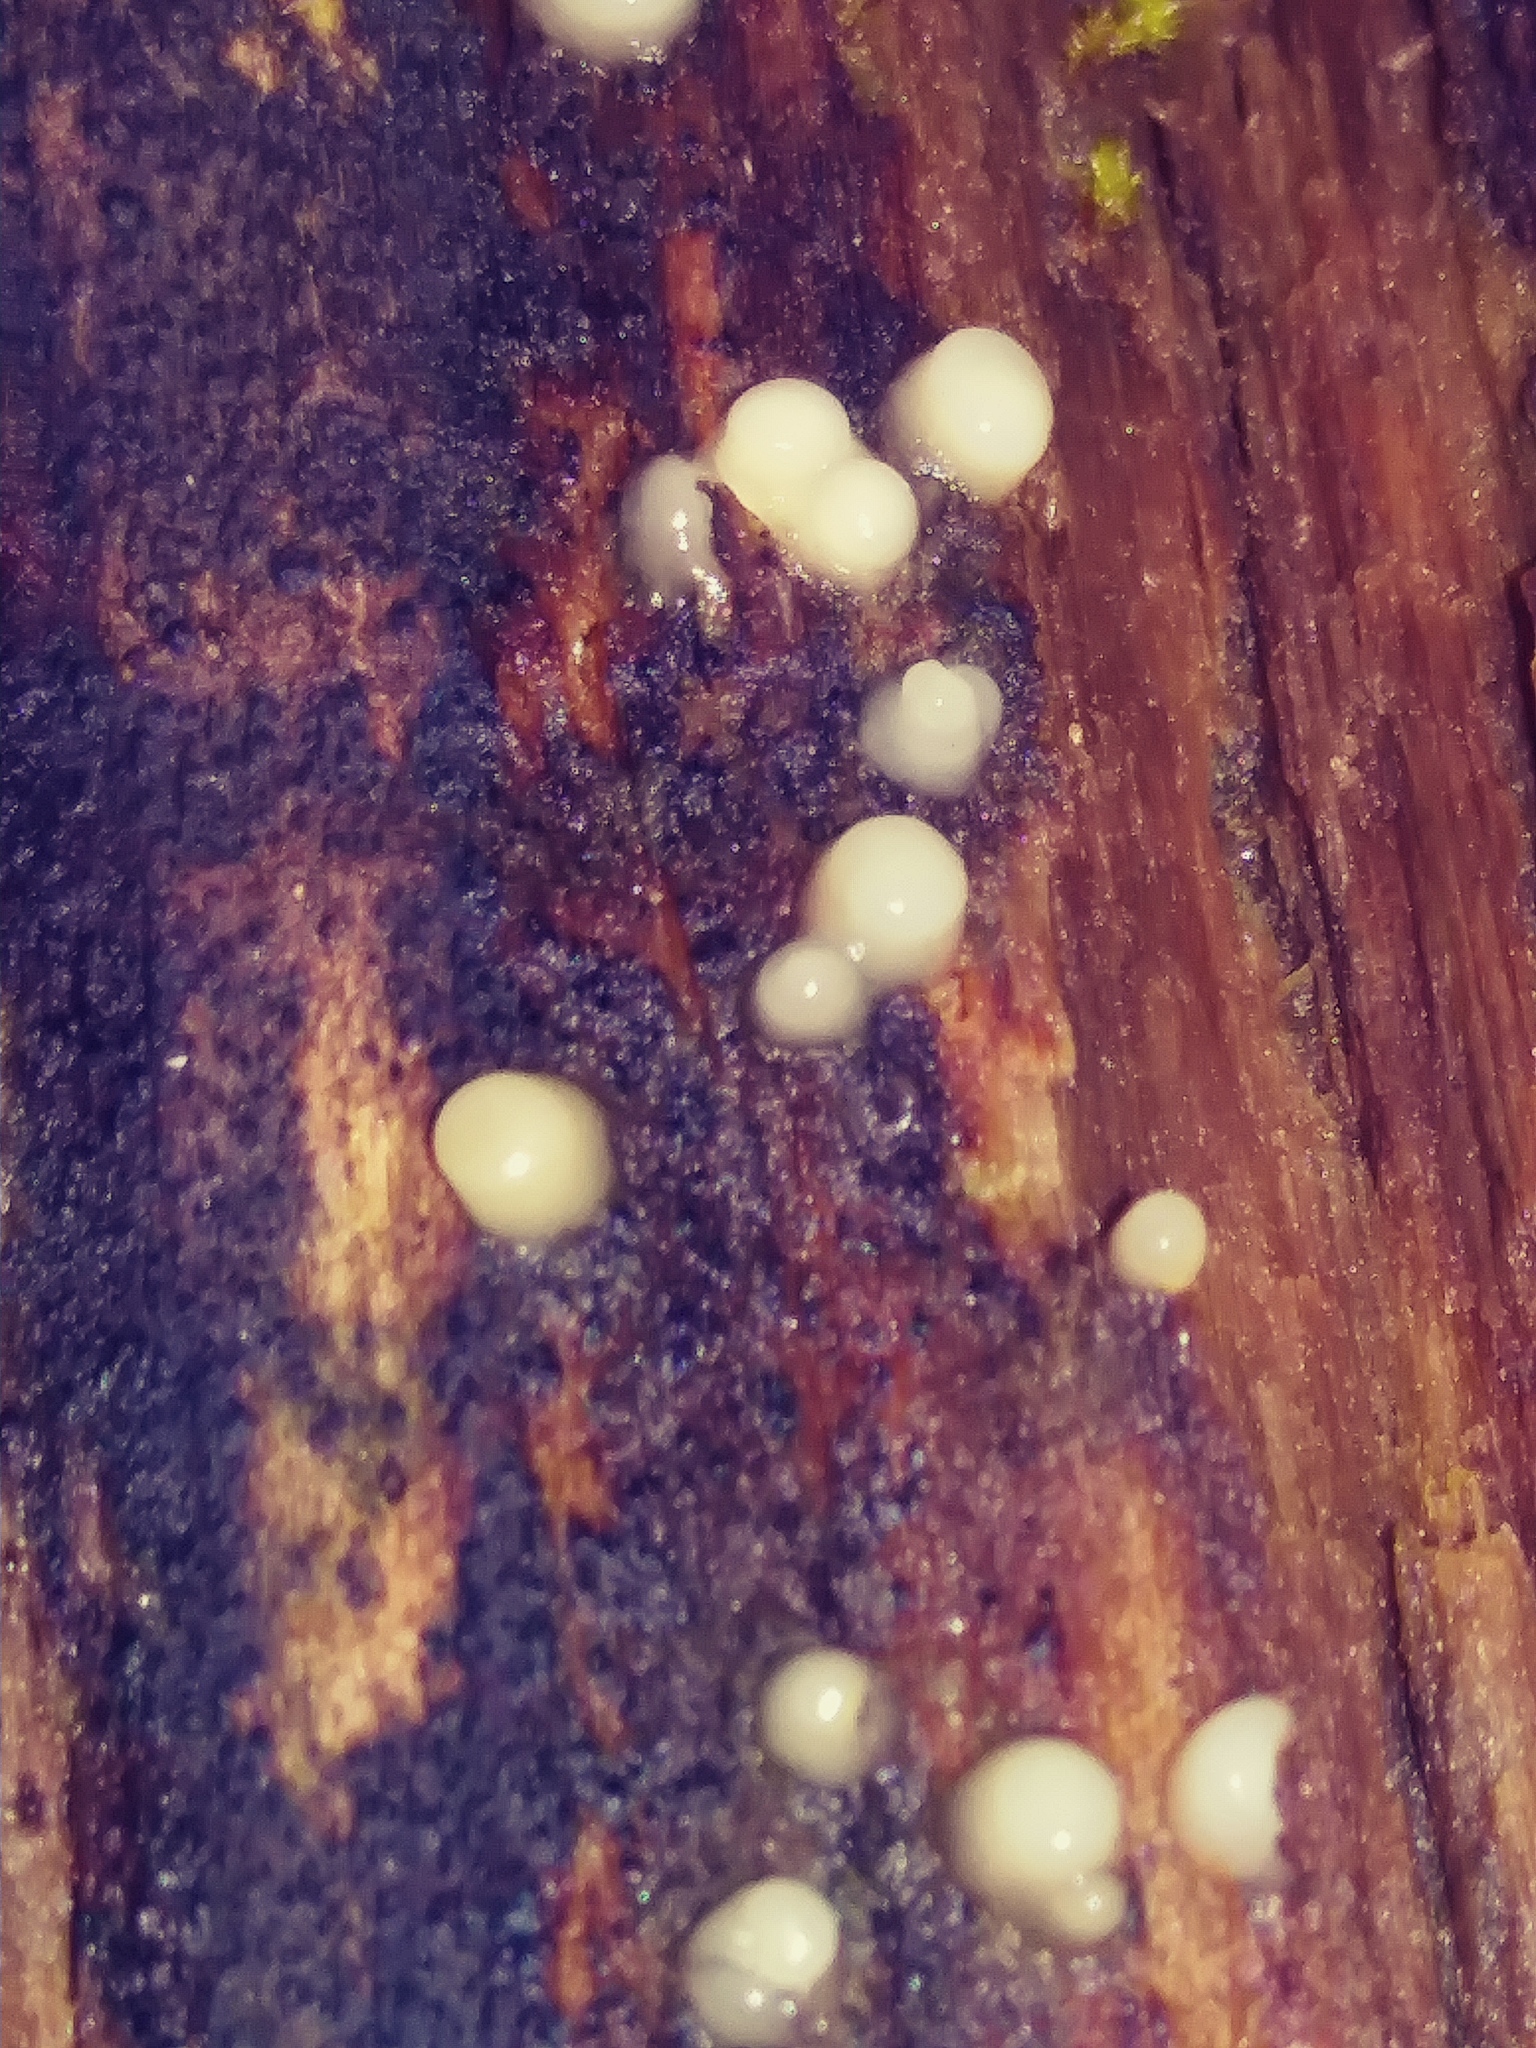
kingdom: Fungi
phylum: Basidiomycota
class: Atractiellomycetes
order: Atractiellales
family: Phleogenaceae
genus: Helicogloea
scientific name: Helicogloea compressa
